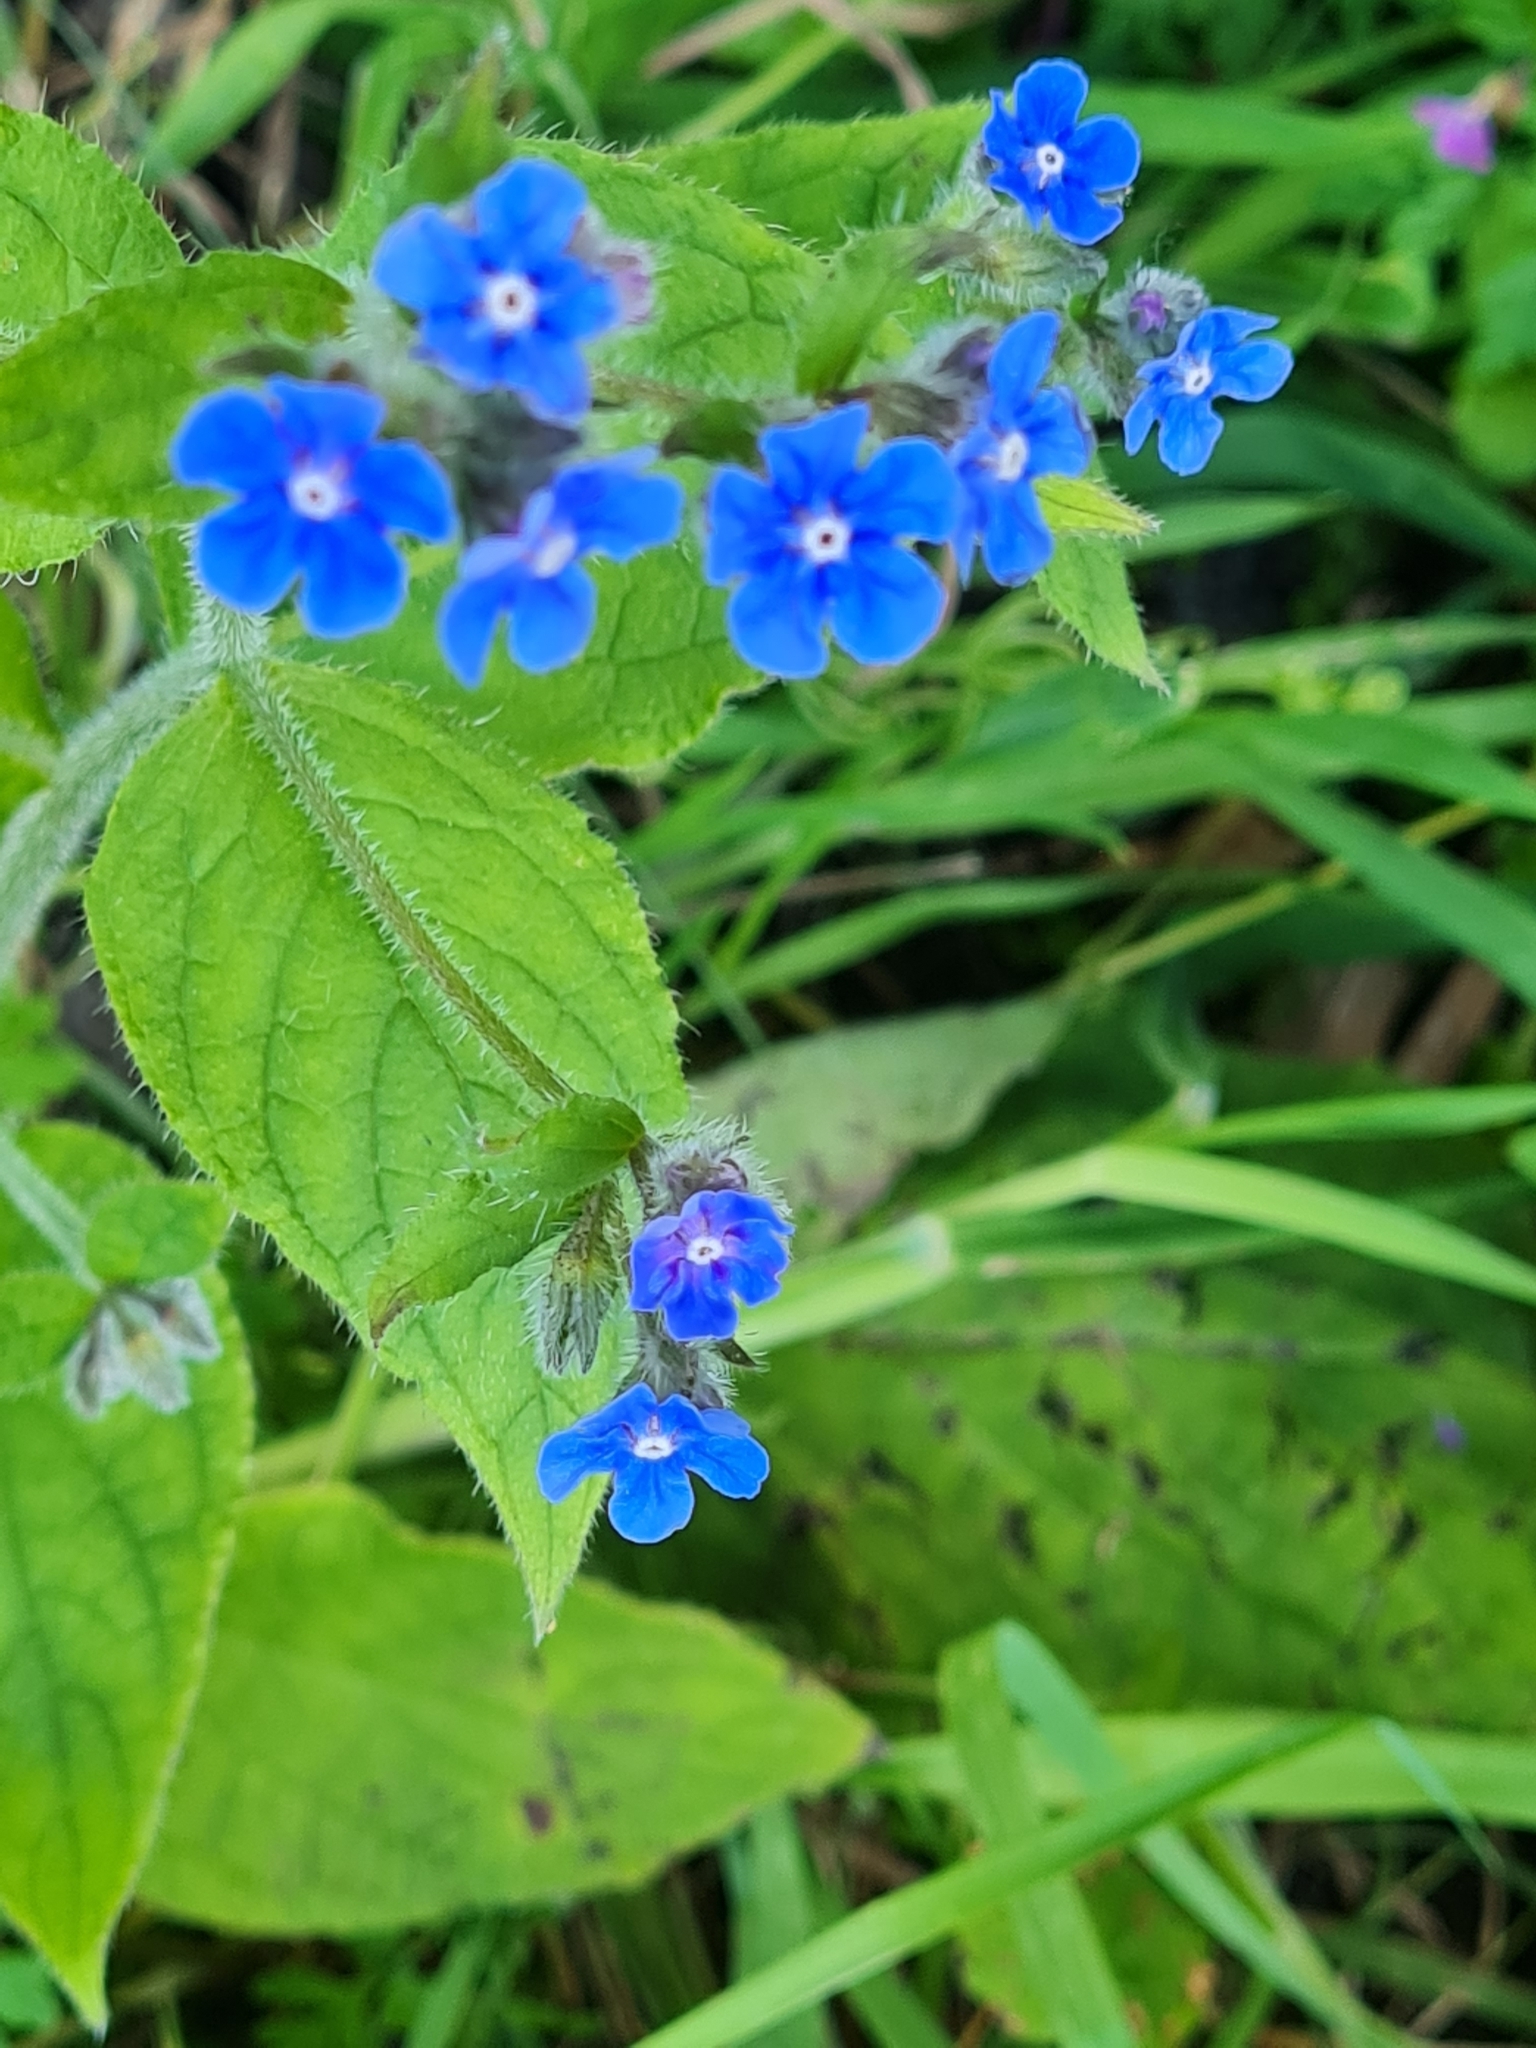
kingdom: Plantae
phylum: Tracheophyta
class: Magnoliopsida
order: Boraginales
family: Boraginaceae
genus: Pentaglottis
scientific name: Pentaglottis sempervirens
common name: Green alkanet
